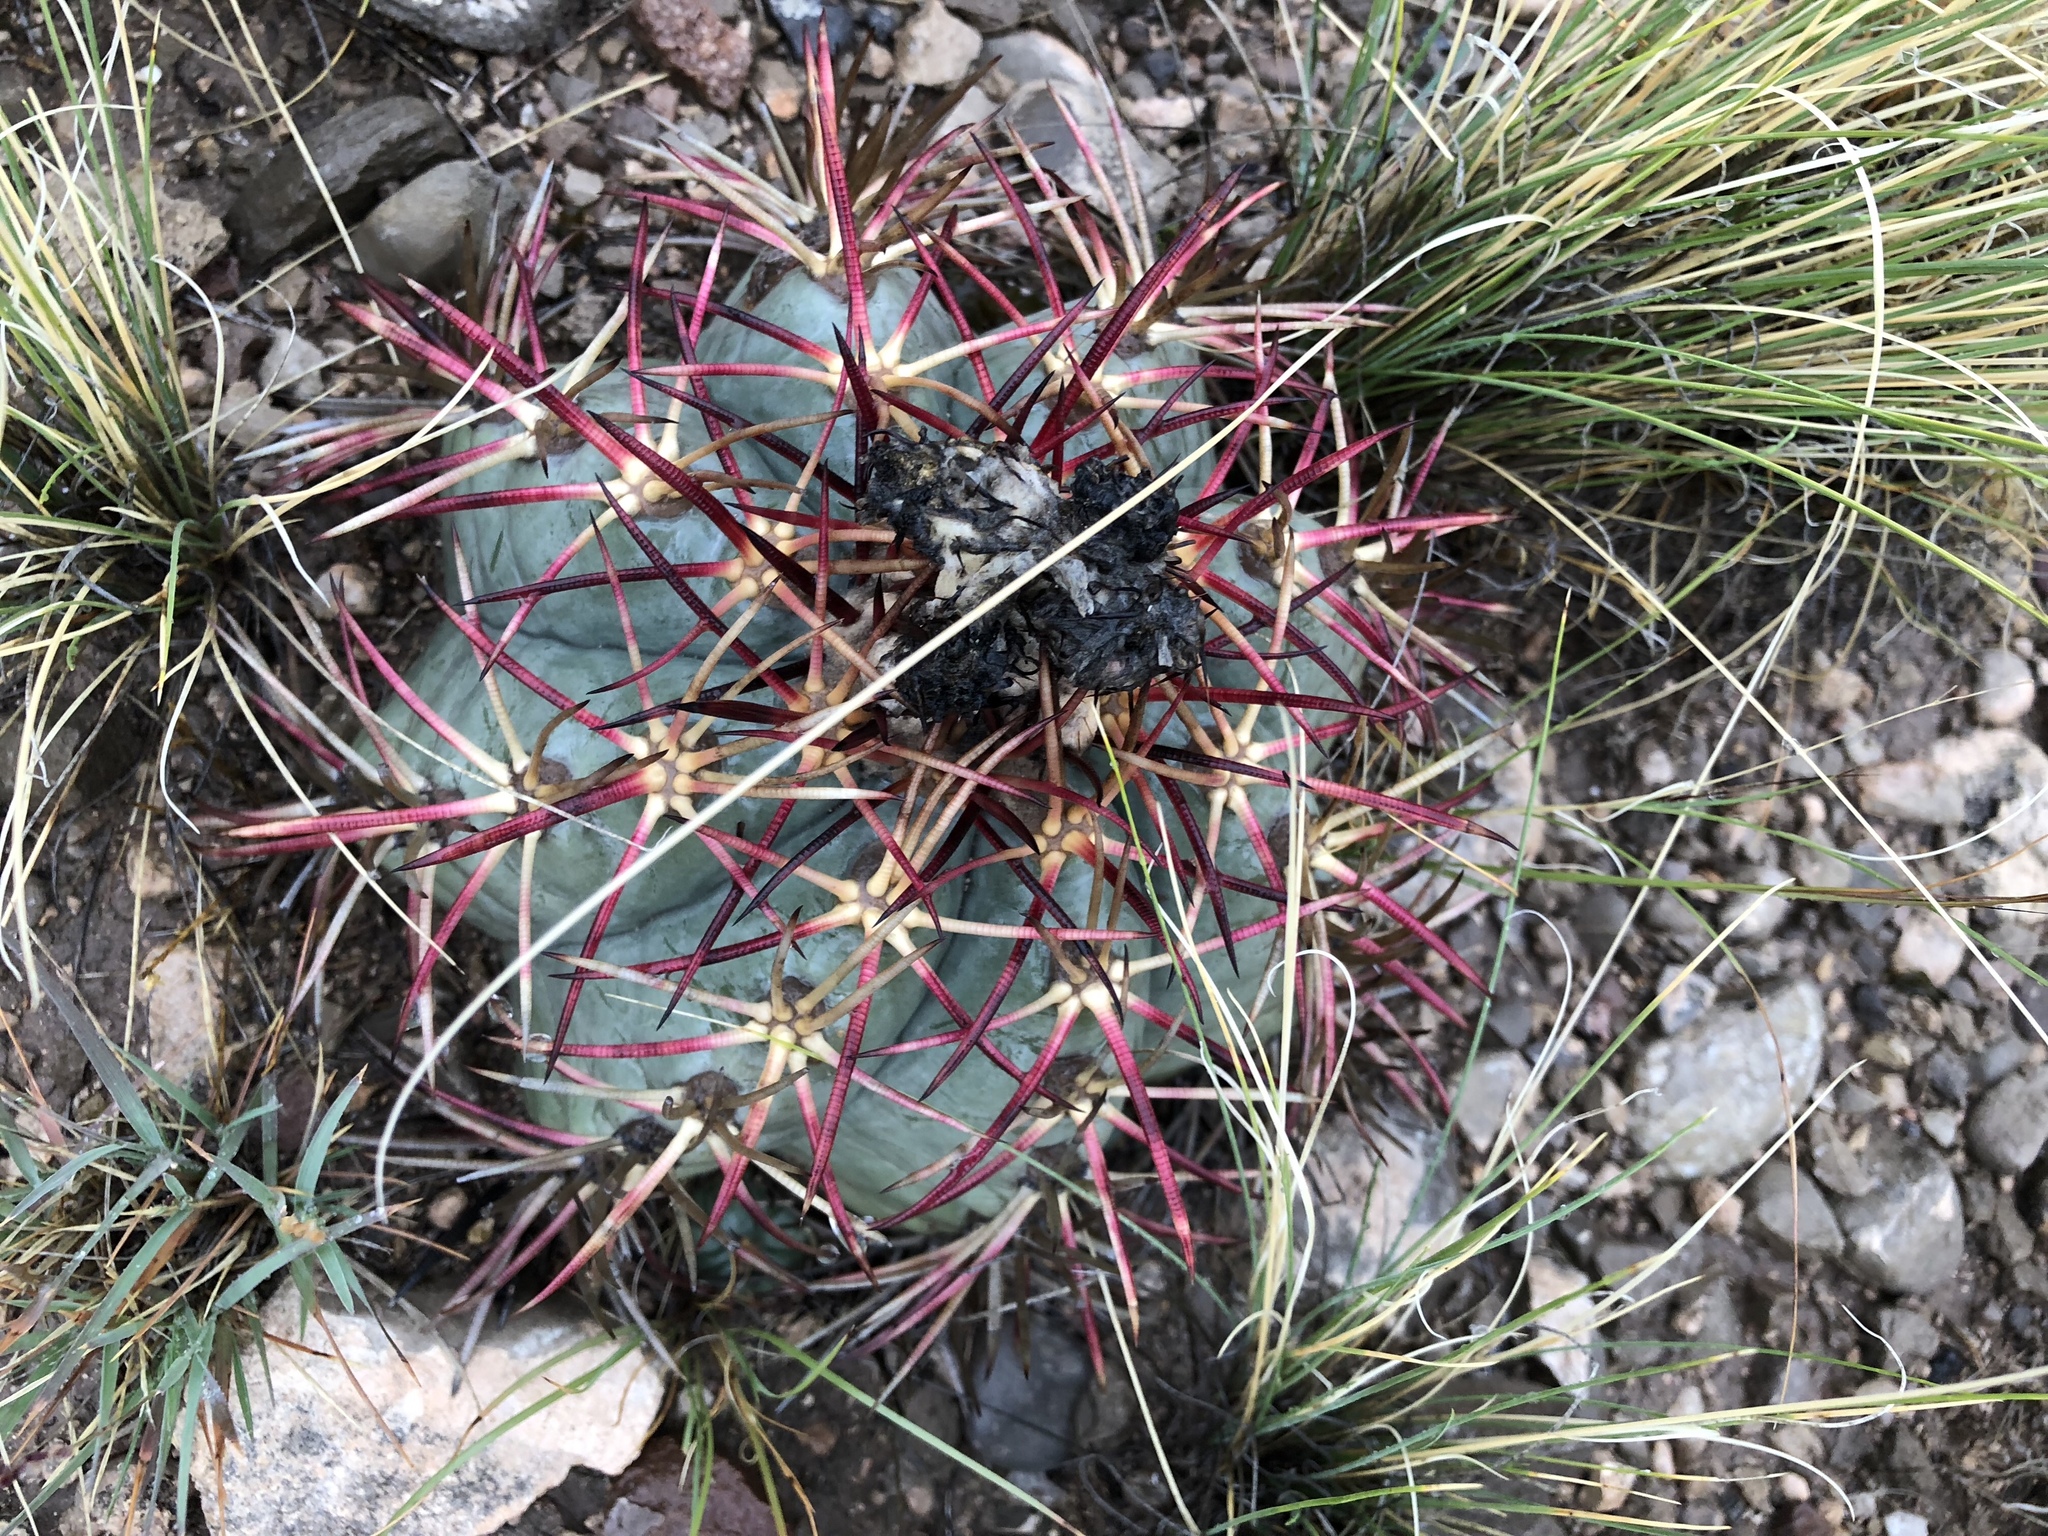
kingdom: Plantae
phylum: Tracheophyta
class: Magnoliopsida
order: Caryophyllales
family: Cactaceae
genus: Echinocactus
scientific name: Echinocactus horizonthalonius
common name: Devilshead
